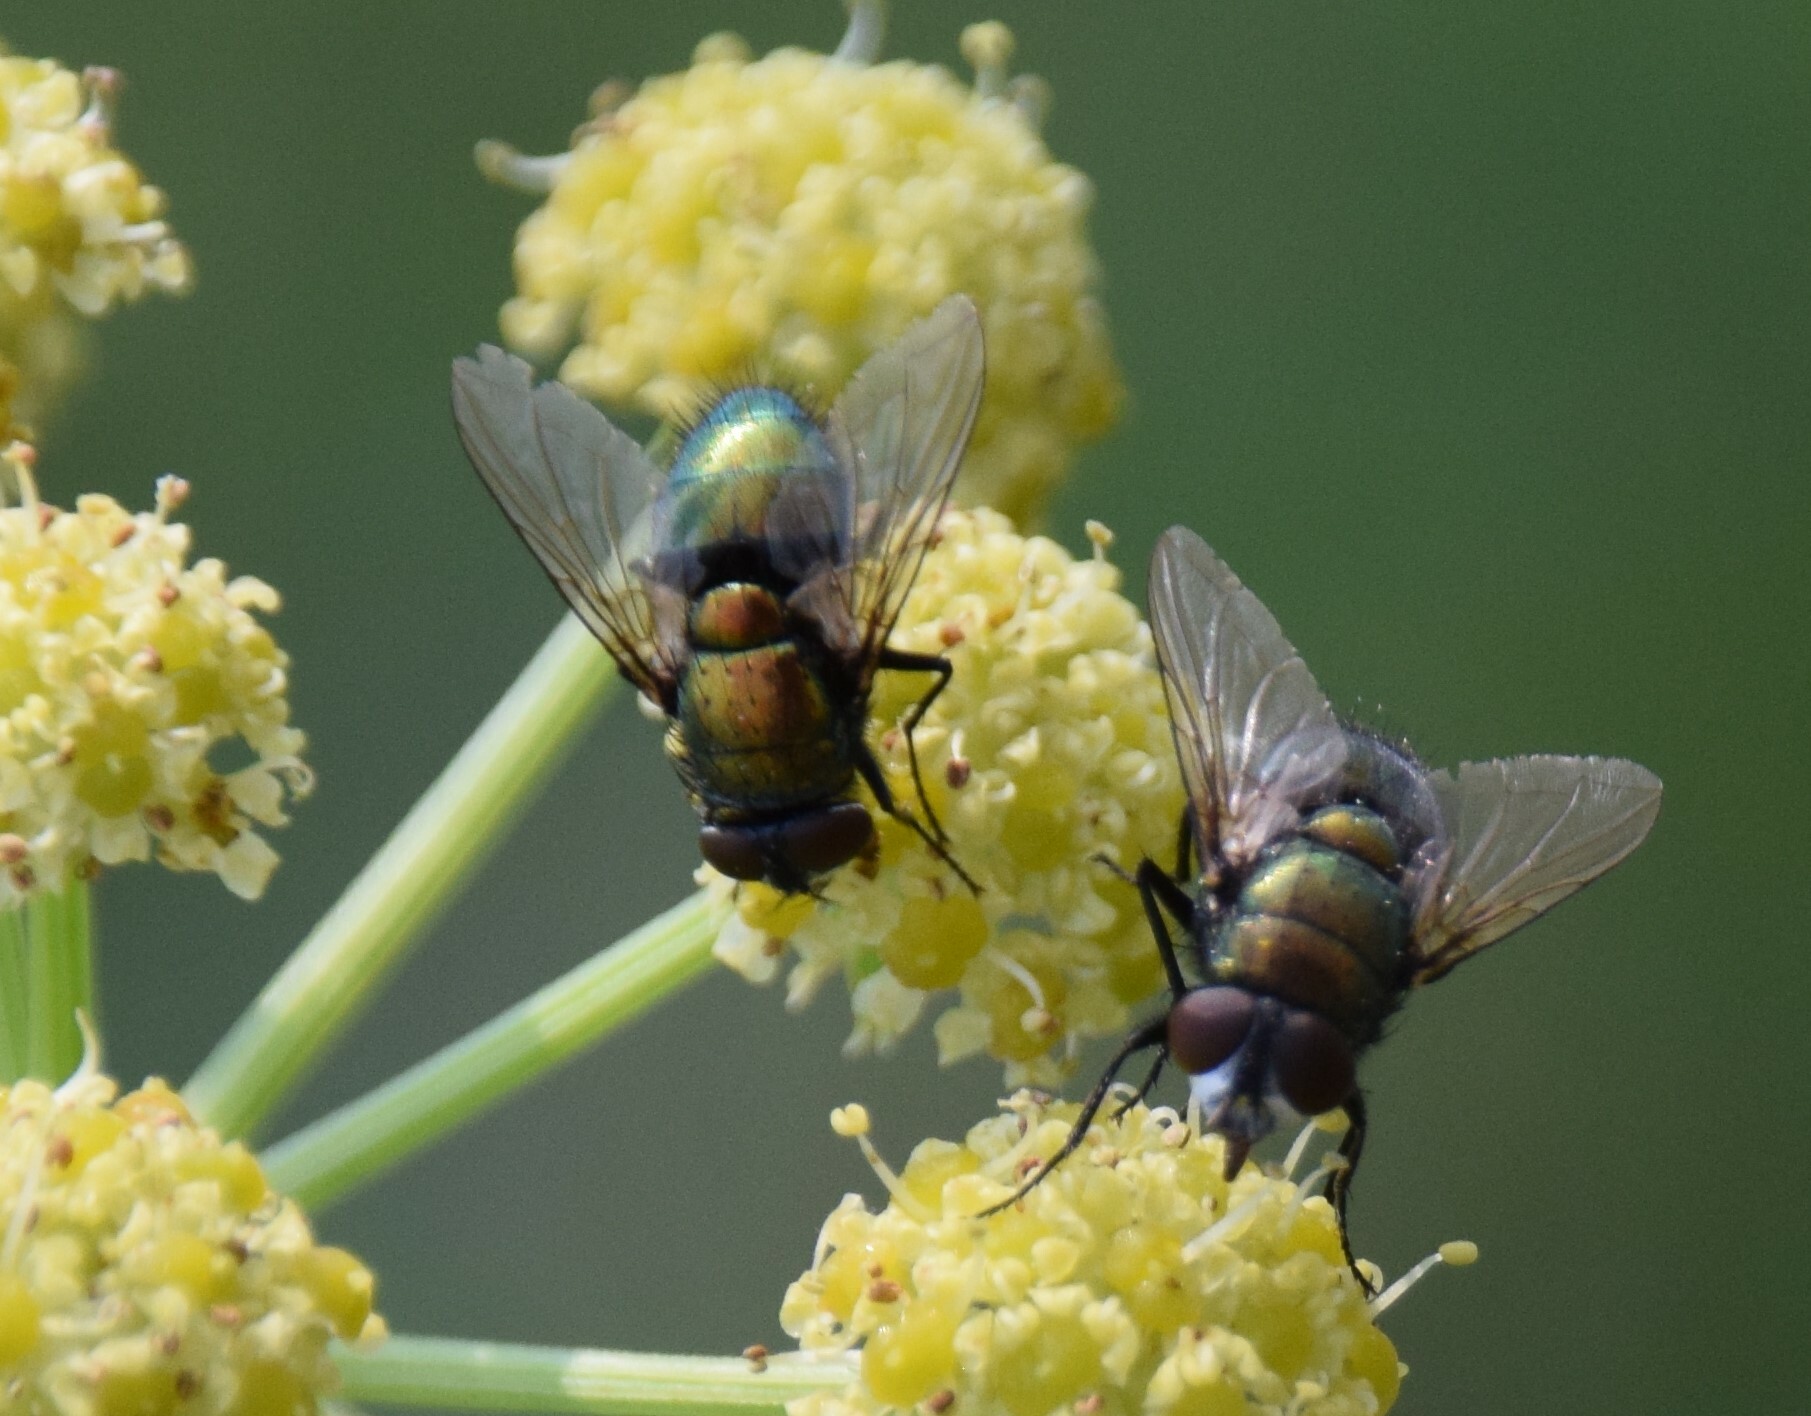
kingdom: Animalia
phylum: Arthropoda
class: Insecta
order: Diptera
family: Calliphoridae
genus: Lucilia
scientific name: Lucilia sericata
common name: Blow fly
